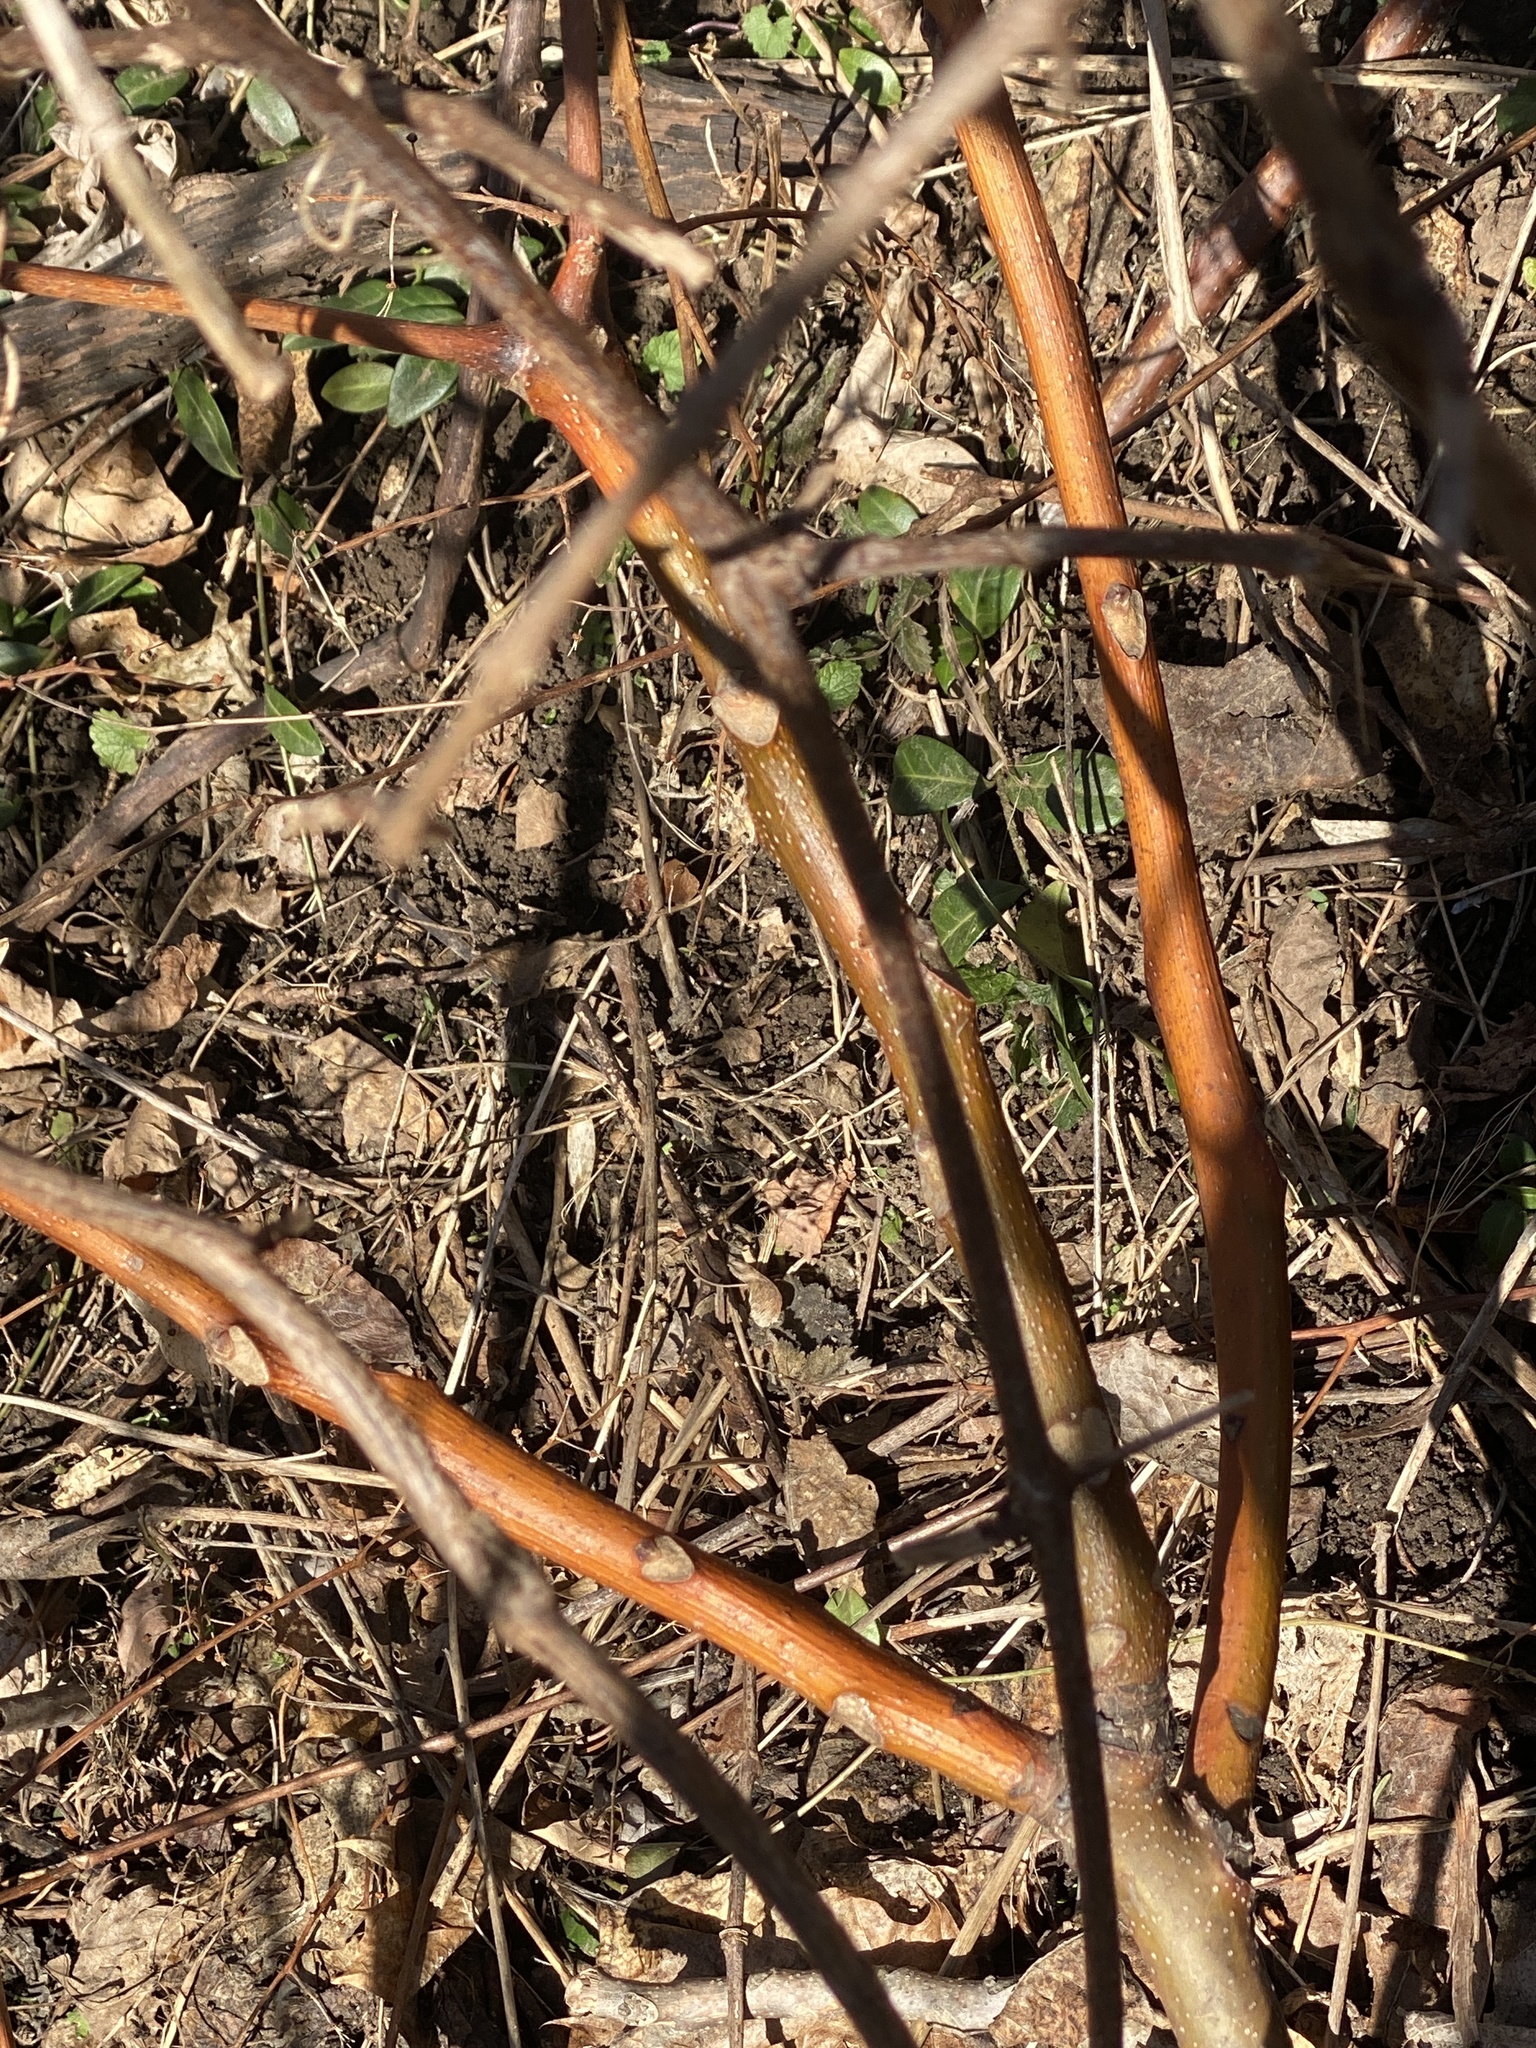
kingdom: Plantae
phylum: Tracheophyta
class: Magnoliopsida
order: Sapindales
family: Simaroubaceae
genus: Ailanthus
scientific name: Ailanthus altissima
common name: Tree-of-heaven
